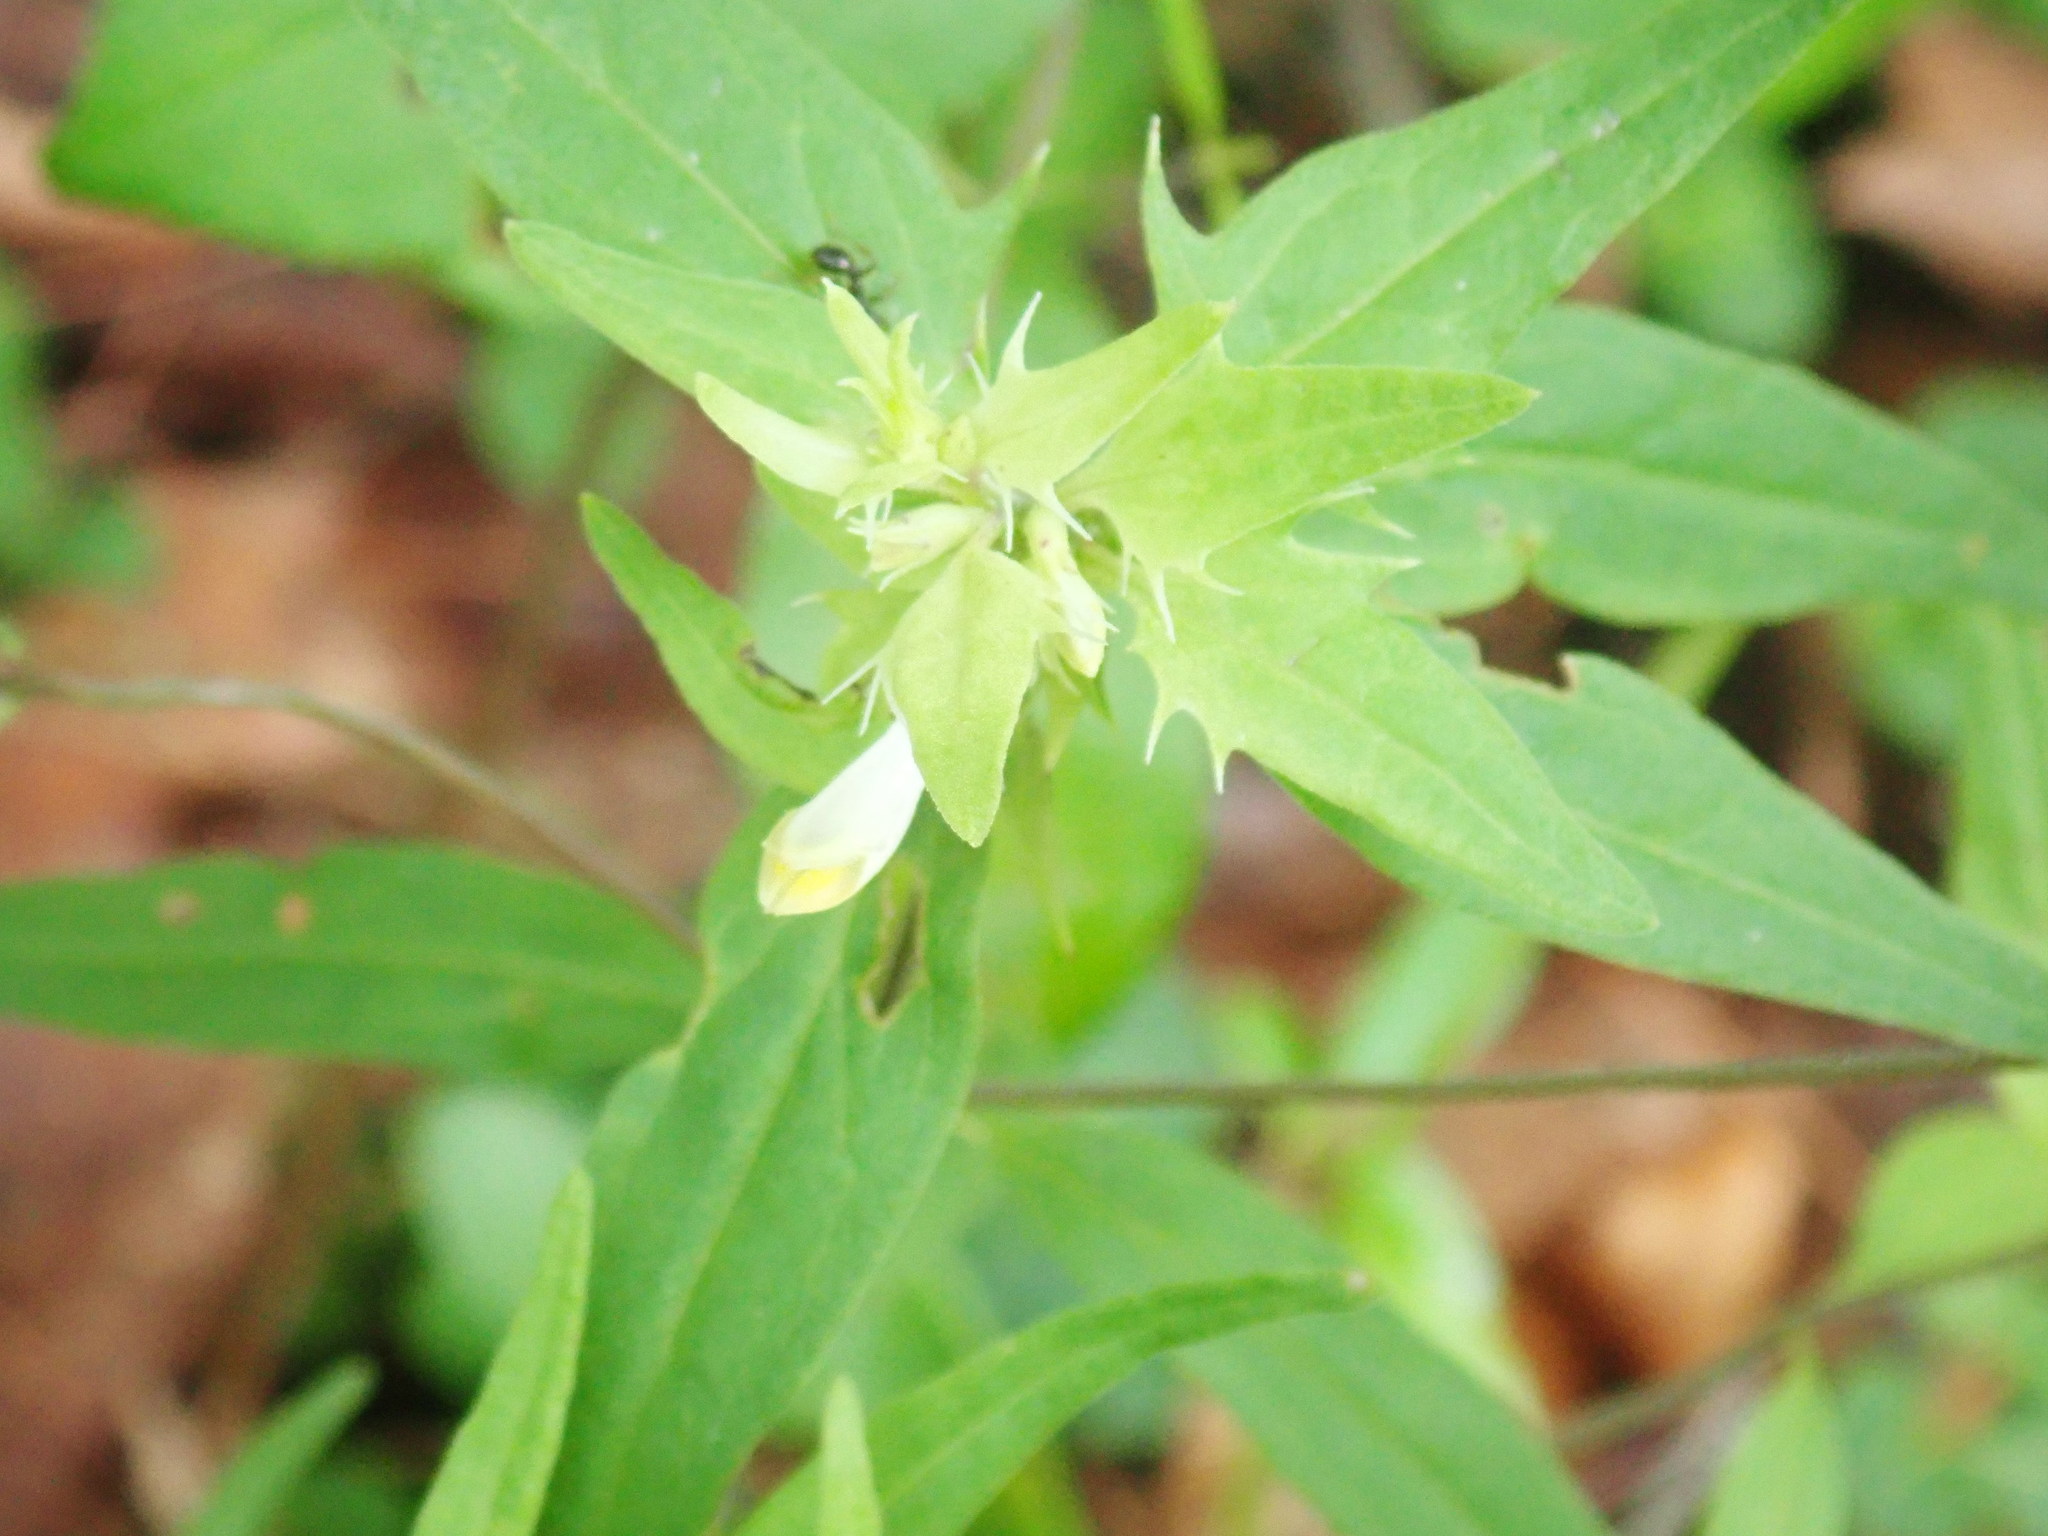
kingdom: Plantae
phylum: Tracheophyta
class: Magnoliopsida
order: Lamiales
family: Orobanchaceae
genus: Melampyrum
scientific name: Melampyrum lineare
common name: American cow-wheat
